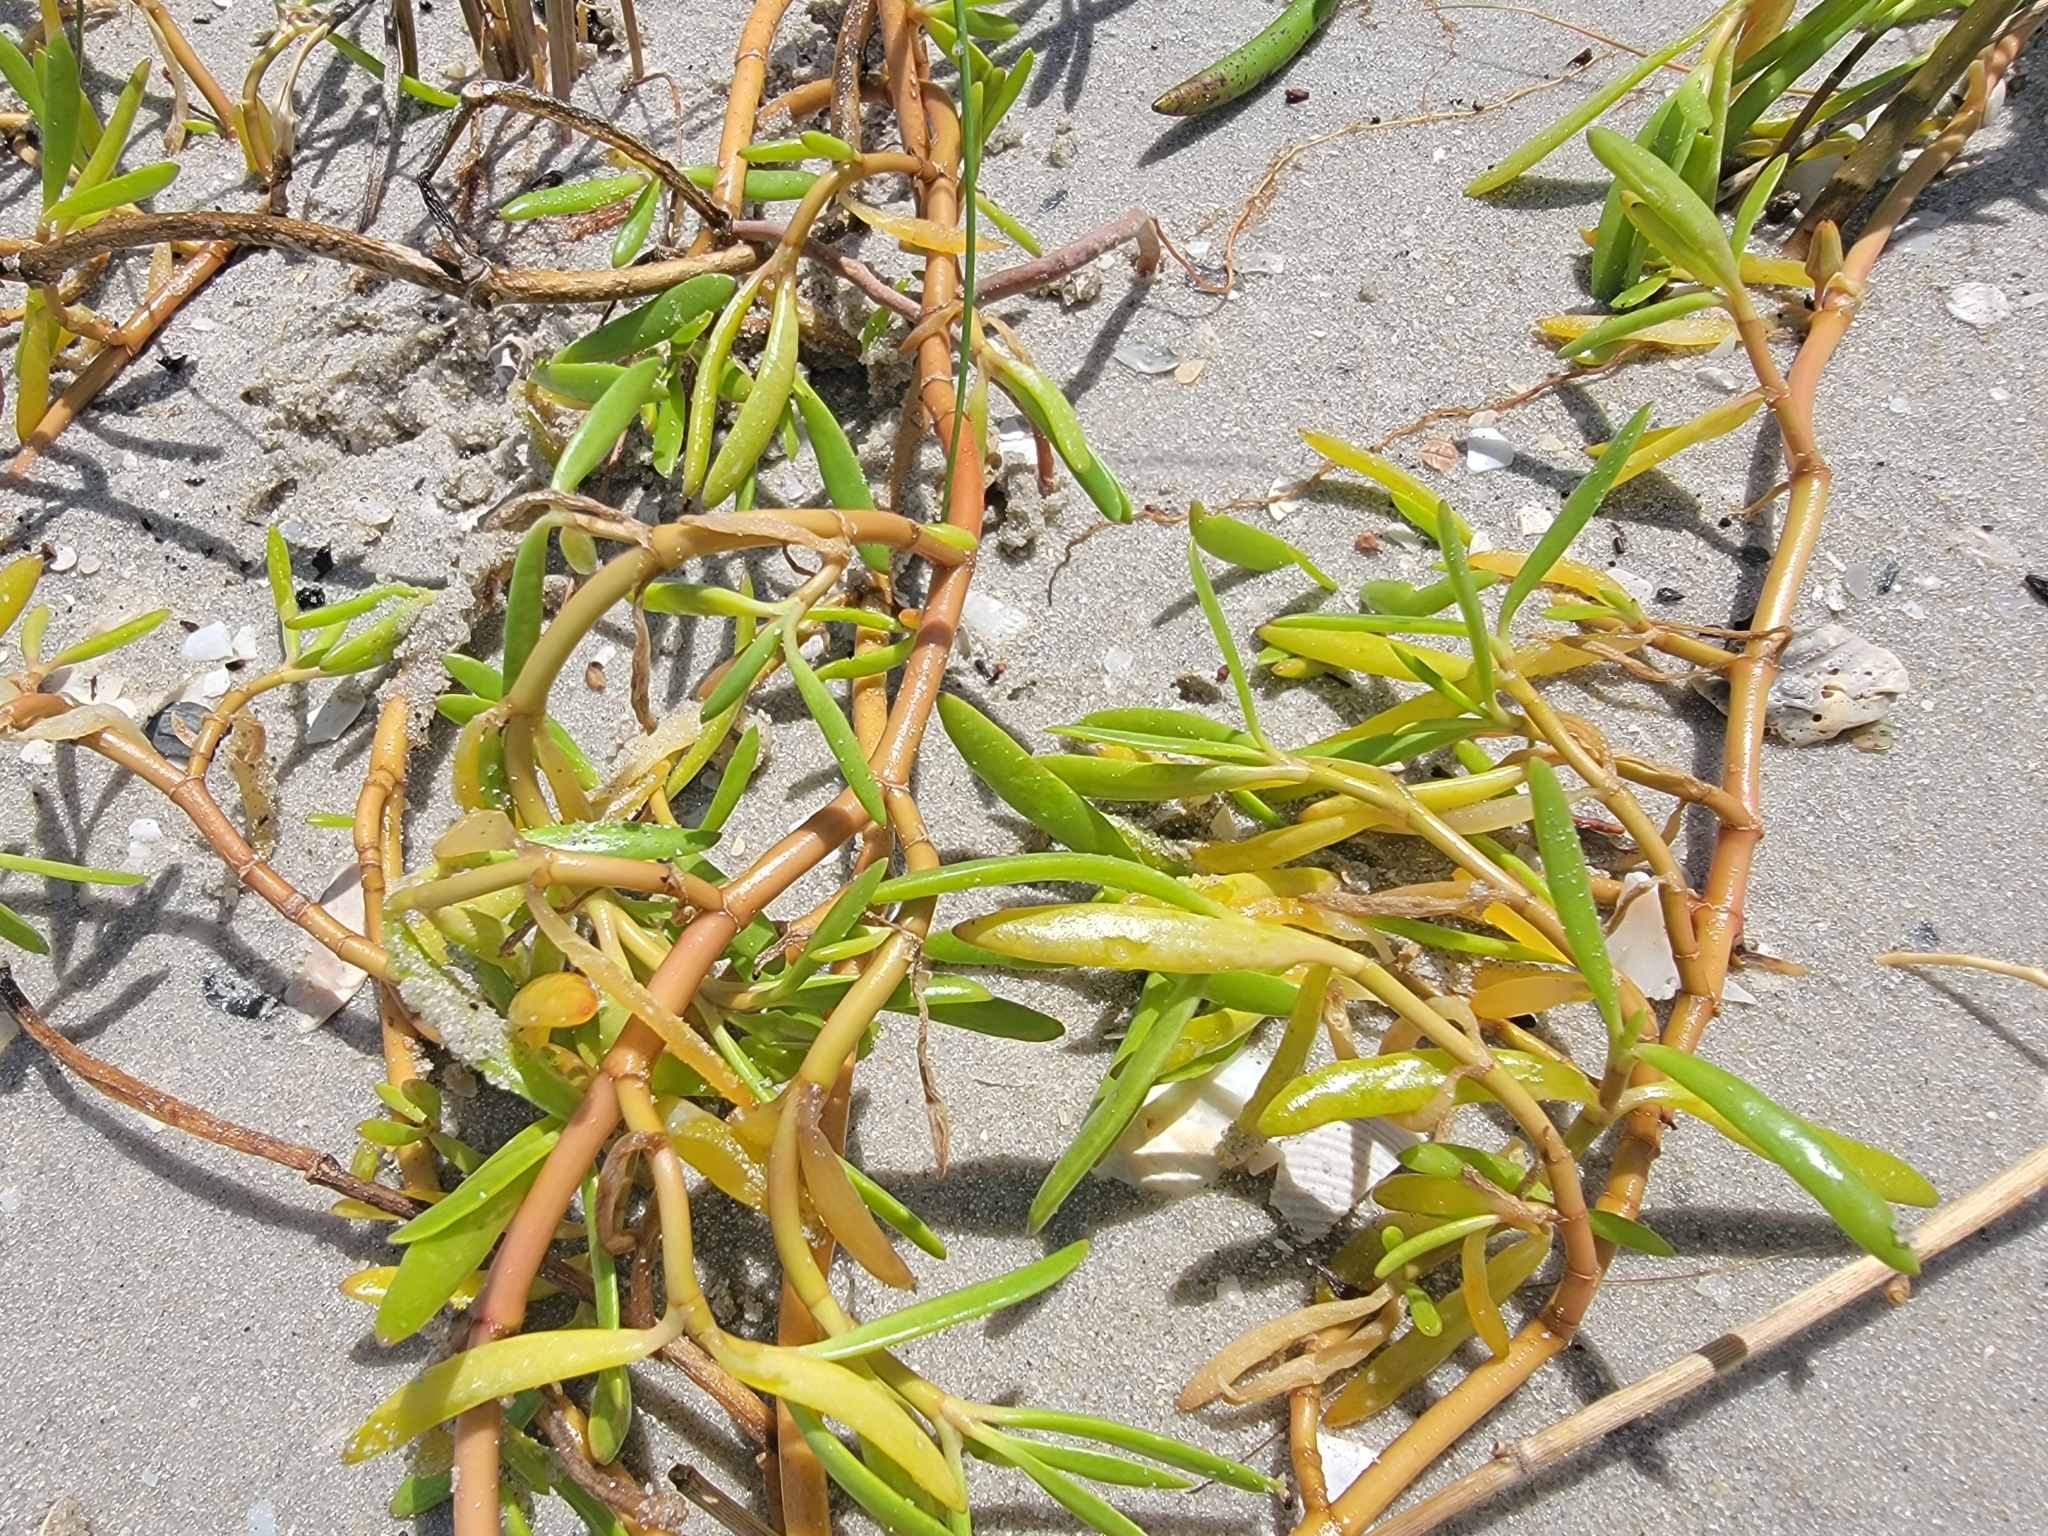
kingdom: Plantae
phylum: Tracheophyta
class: Magnoliopsida
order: Caryophyllales
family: Aizoaceae
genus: Sesuvium
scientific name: Sesuvium portulacastrum
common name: Sea-purslane
